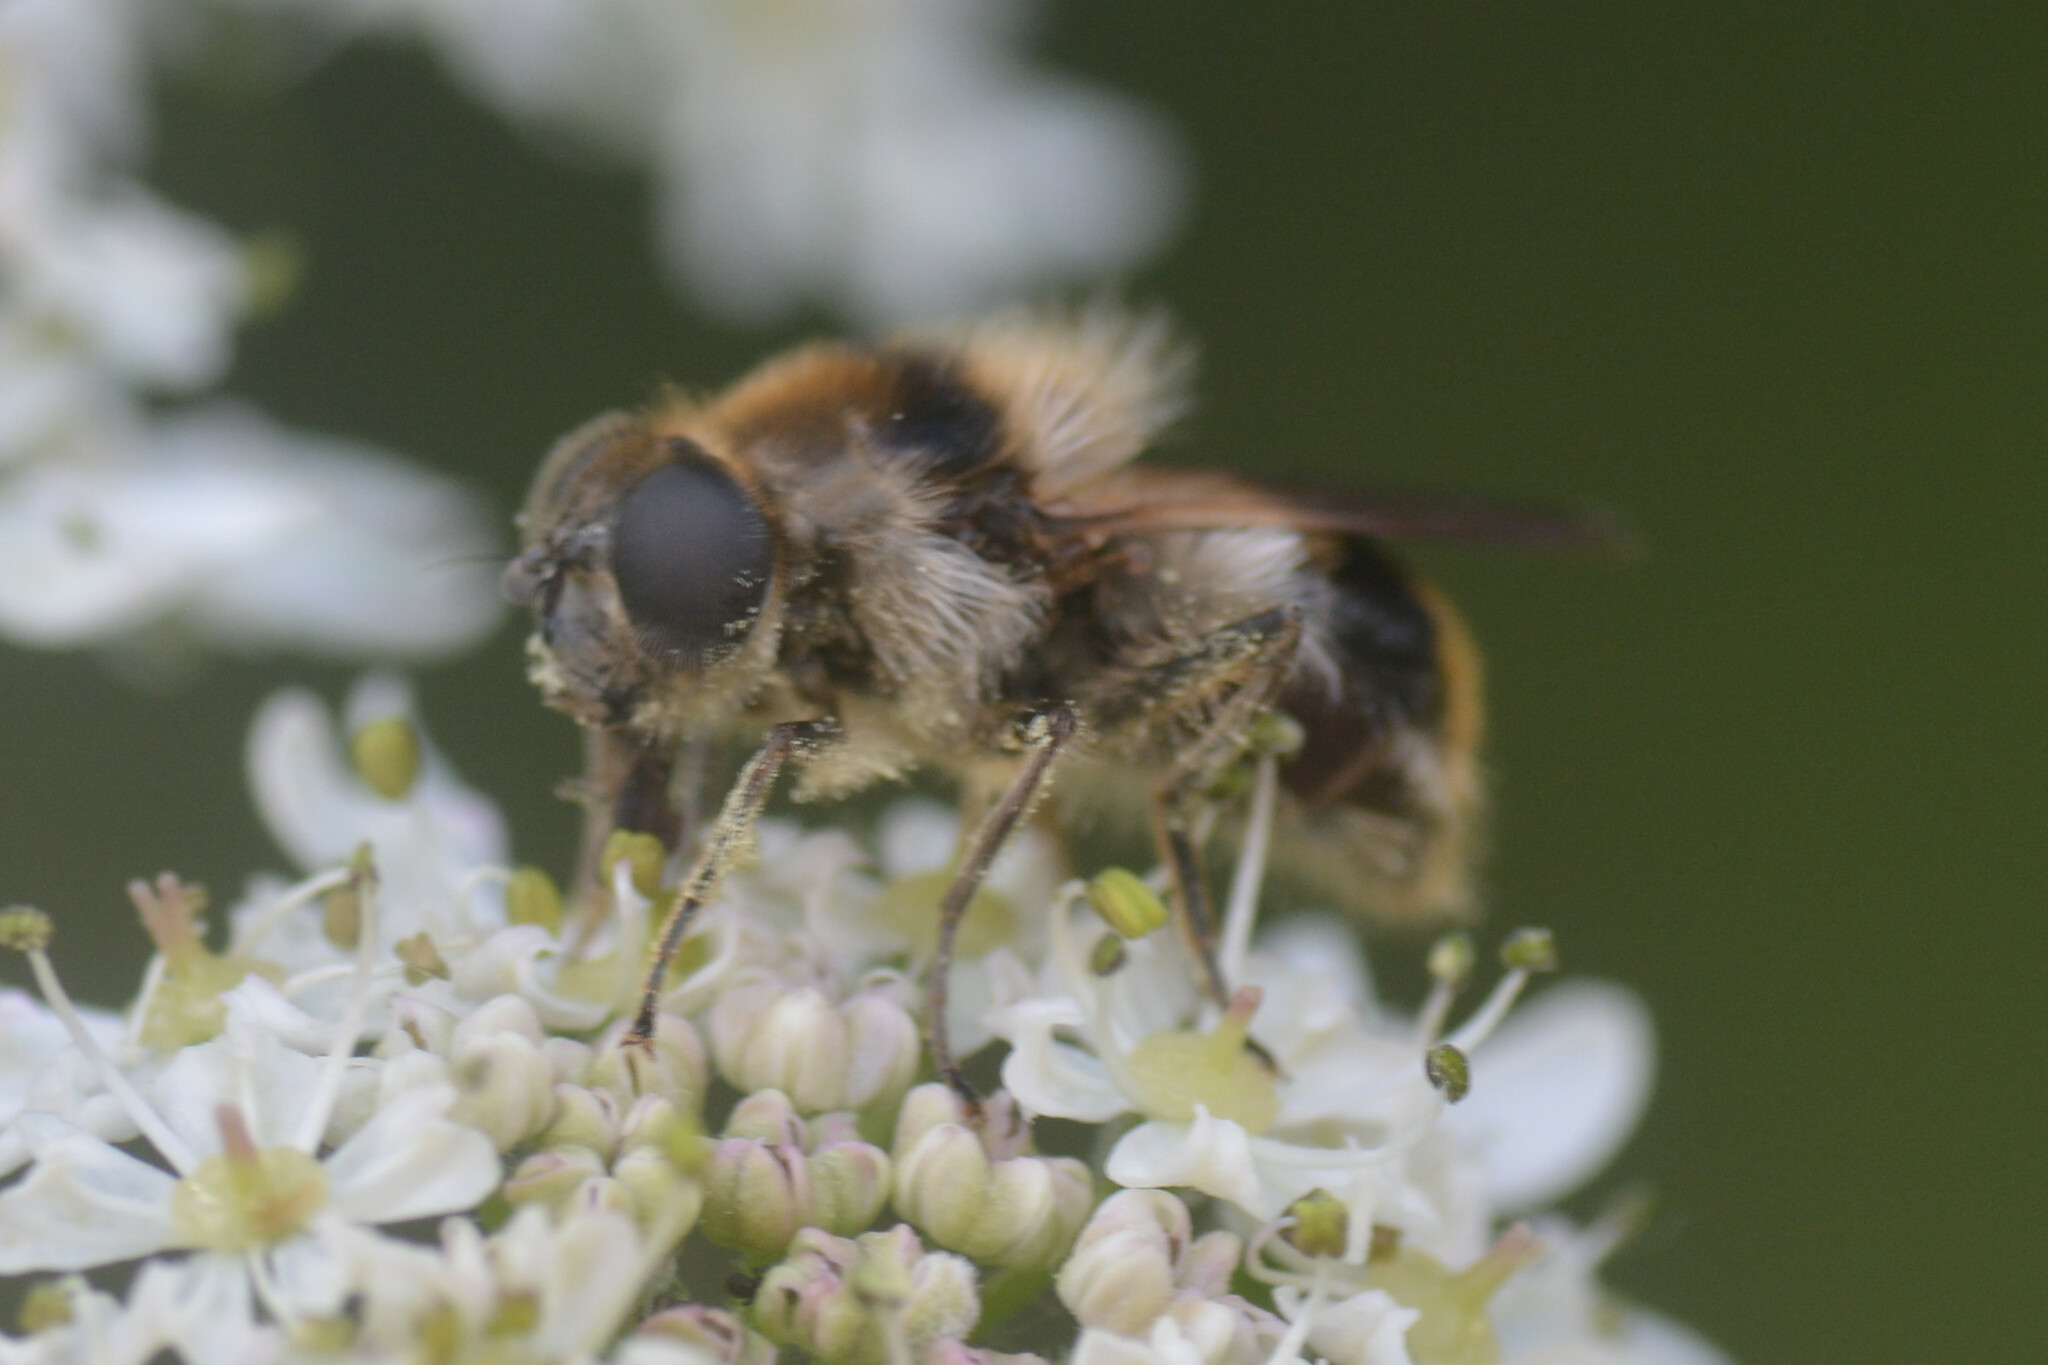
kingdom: Animalia
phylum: Arthropoda
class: Insecta
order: Diptera
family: Syrphidae
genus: Cheilosia
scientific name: Cheilosia illustrata
